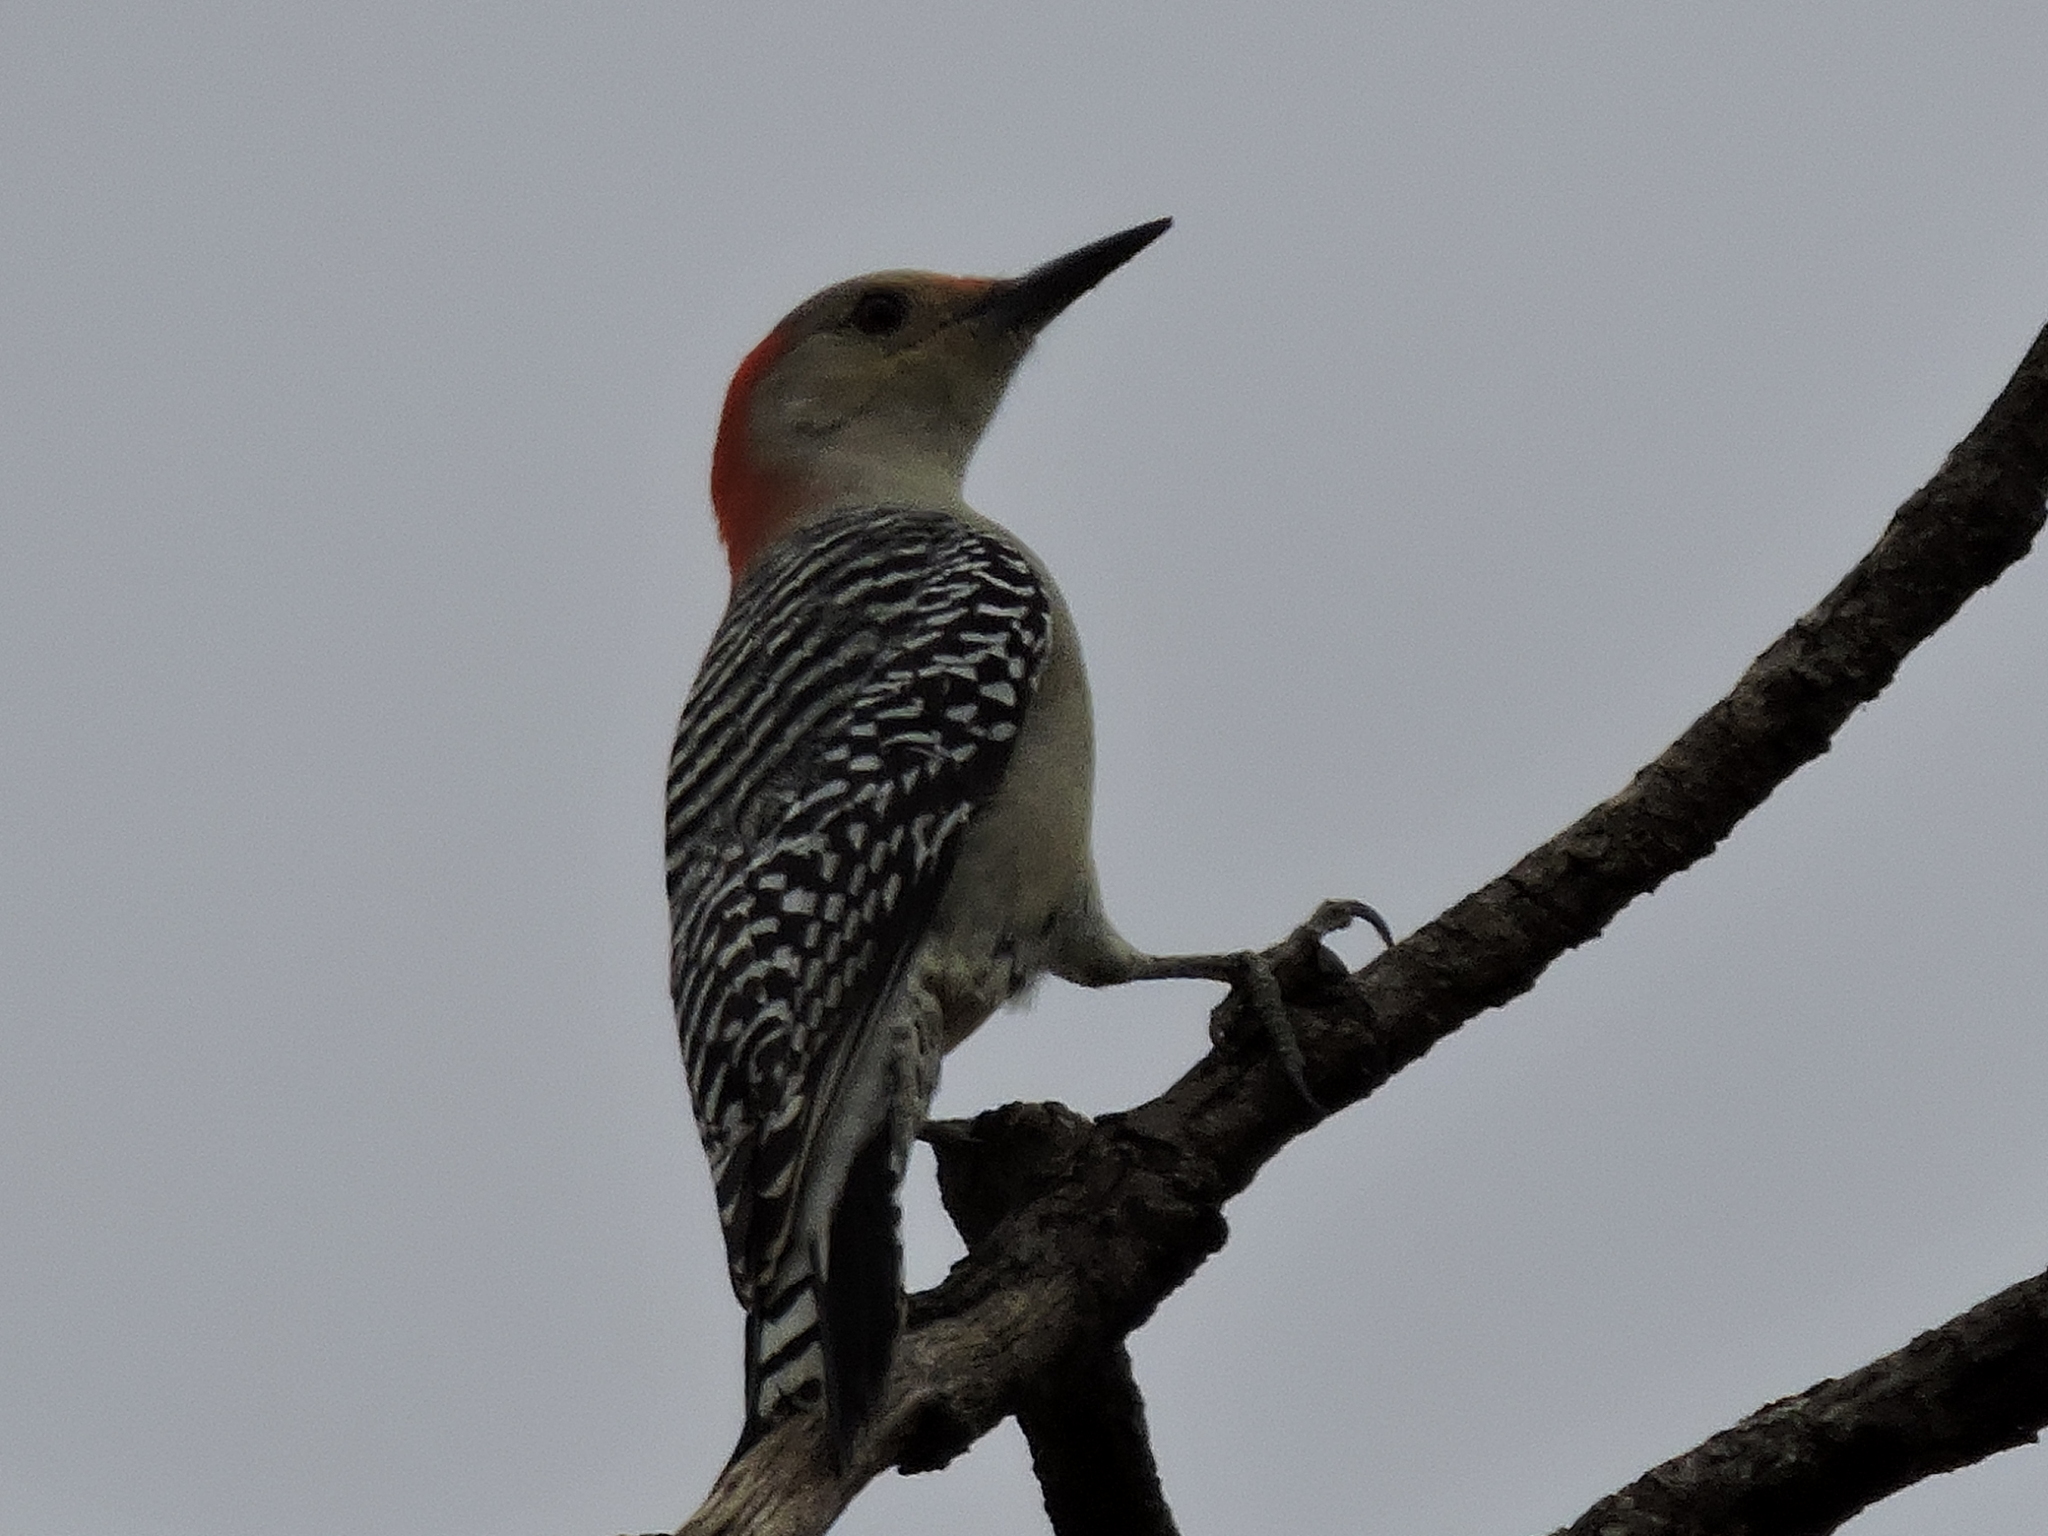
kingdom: Animalia
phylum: Chordata
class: Aves
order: Piciformes
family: Picidae
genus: Melanerpes
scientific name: Melanerpes carolinus
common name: Red-bellied woodpecker
